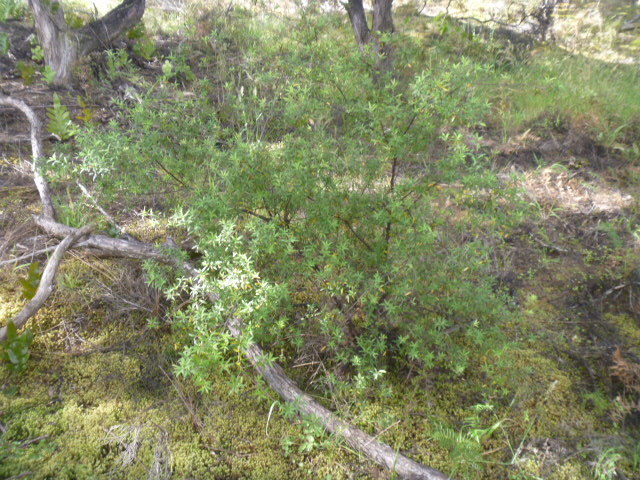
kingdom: Plantae
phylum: Tracheophyta
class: Magnoliopsida
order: Ericales
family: Ericaceae
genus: Leucopogon
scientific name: Leucopogon fasciculatus
